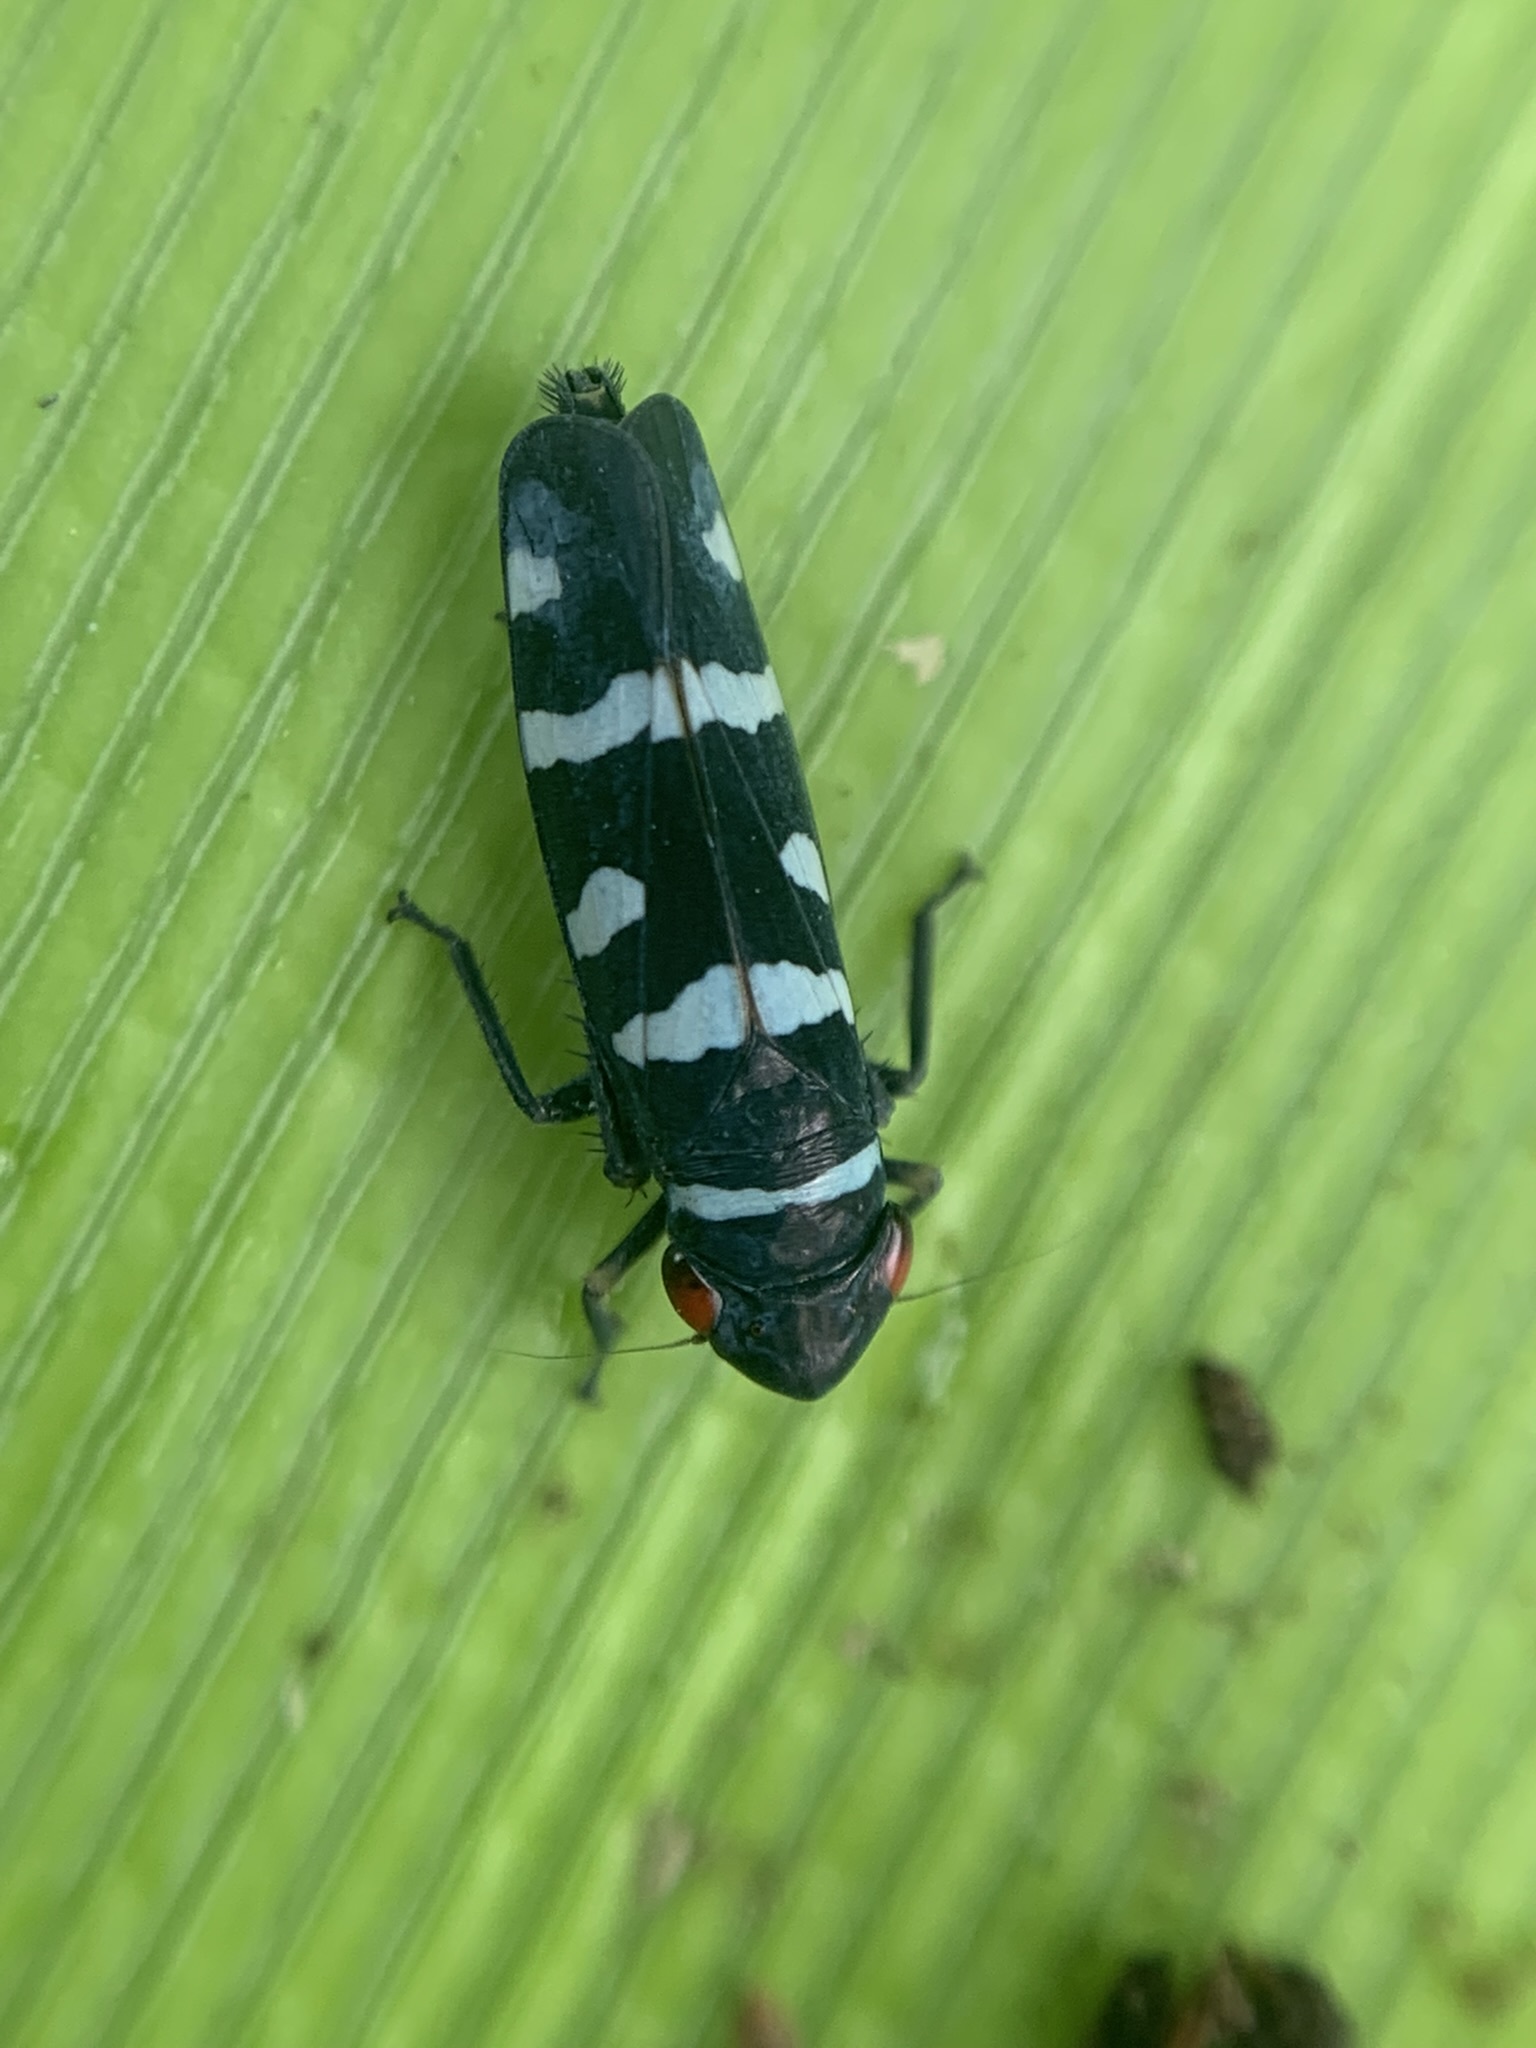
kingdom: Animalia
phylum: Arthropoda
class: Insecta
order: Hemiptera
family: Cicadellidae
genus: Balacha
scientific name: Balacha melanocephala
